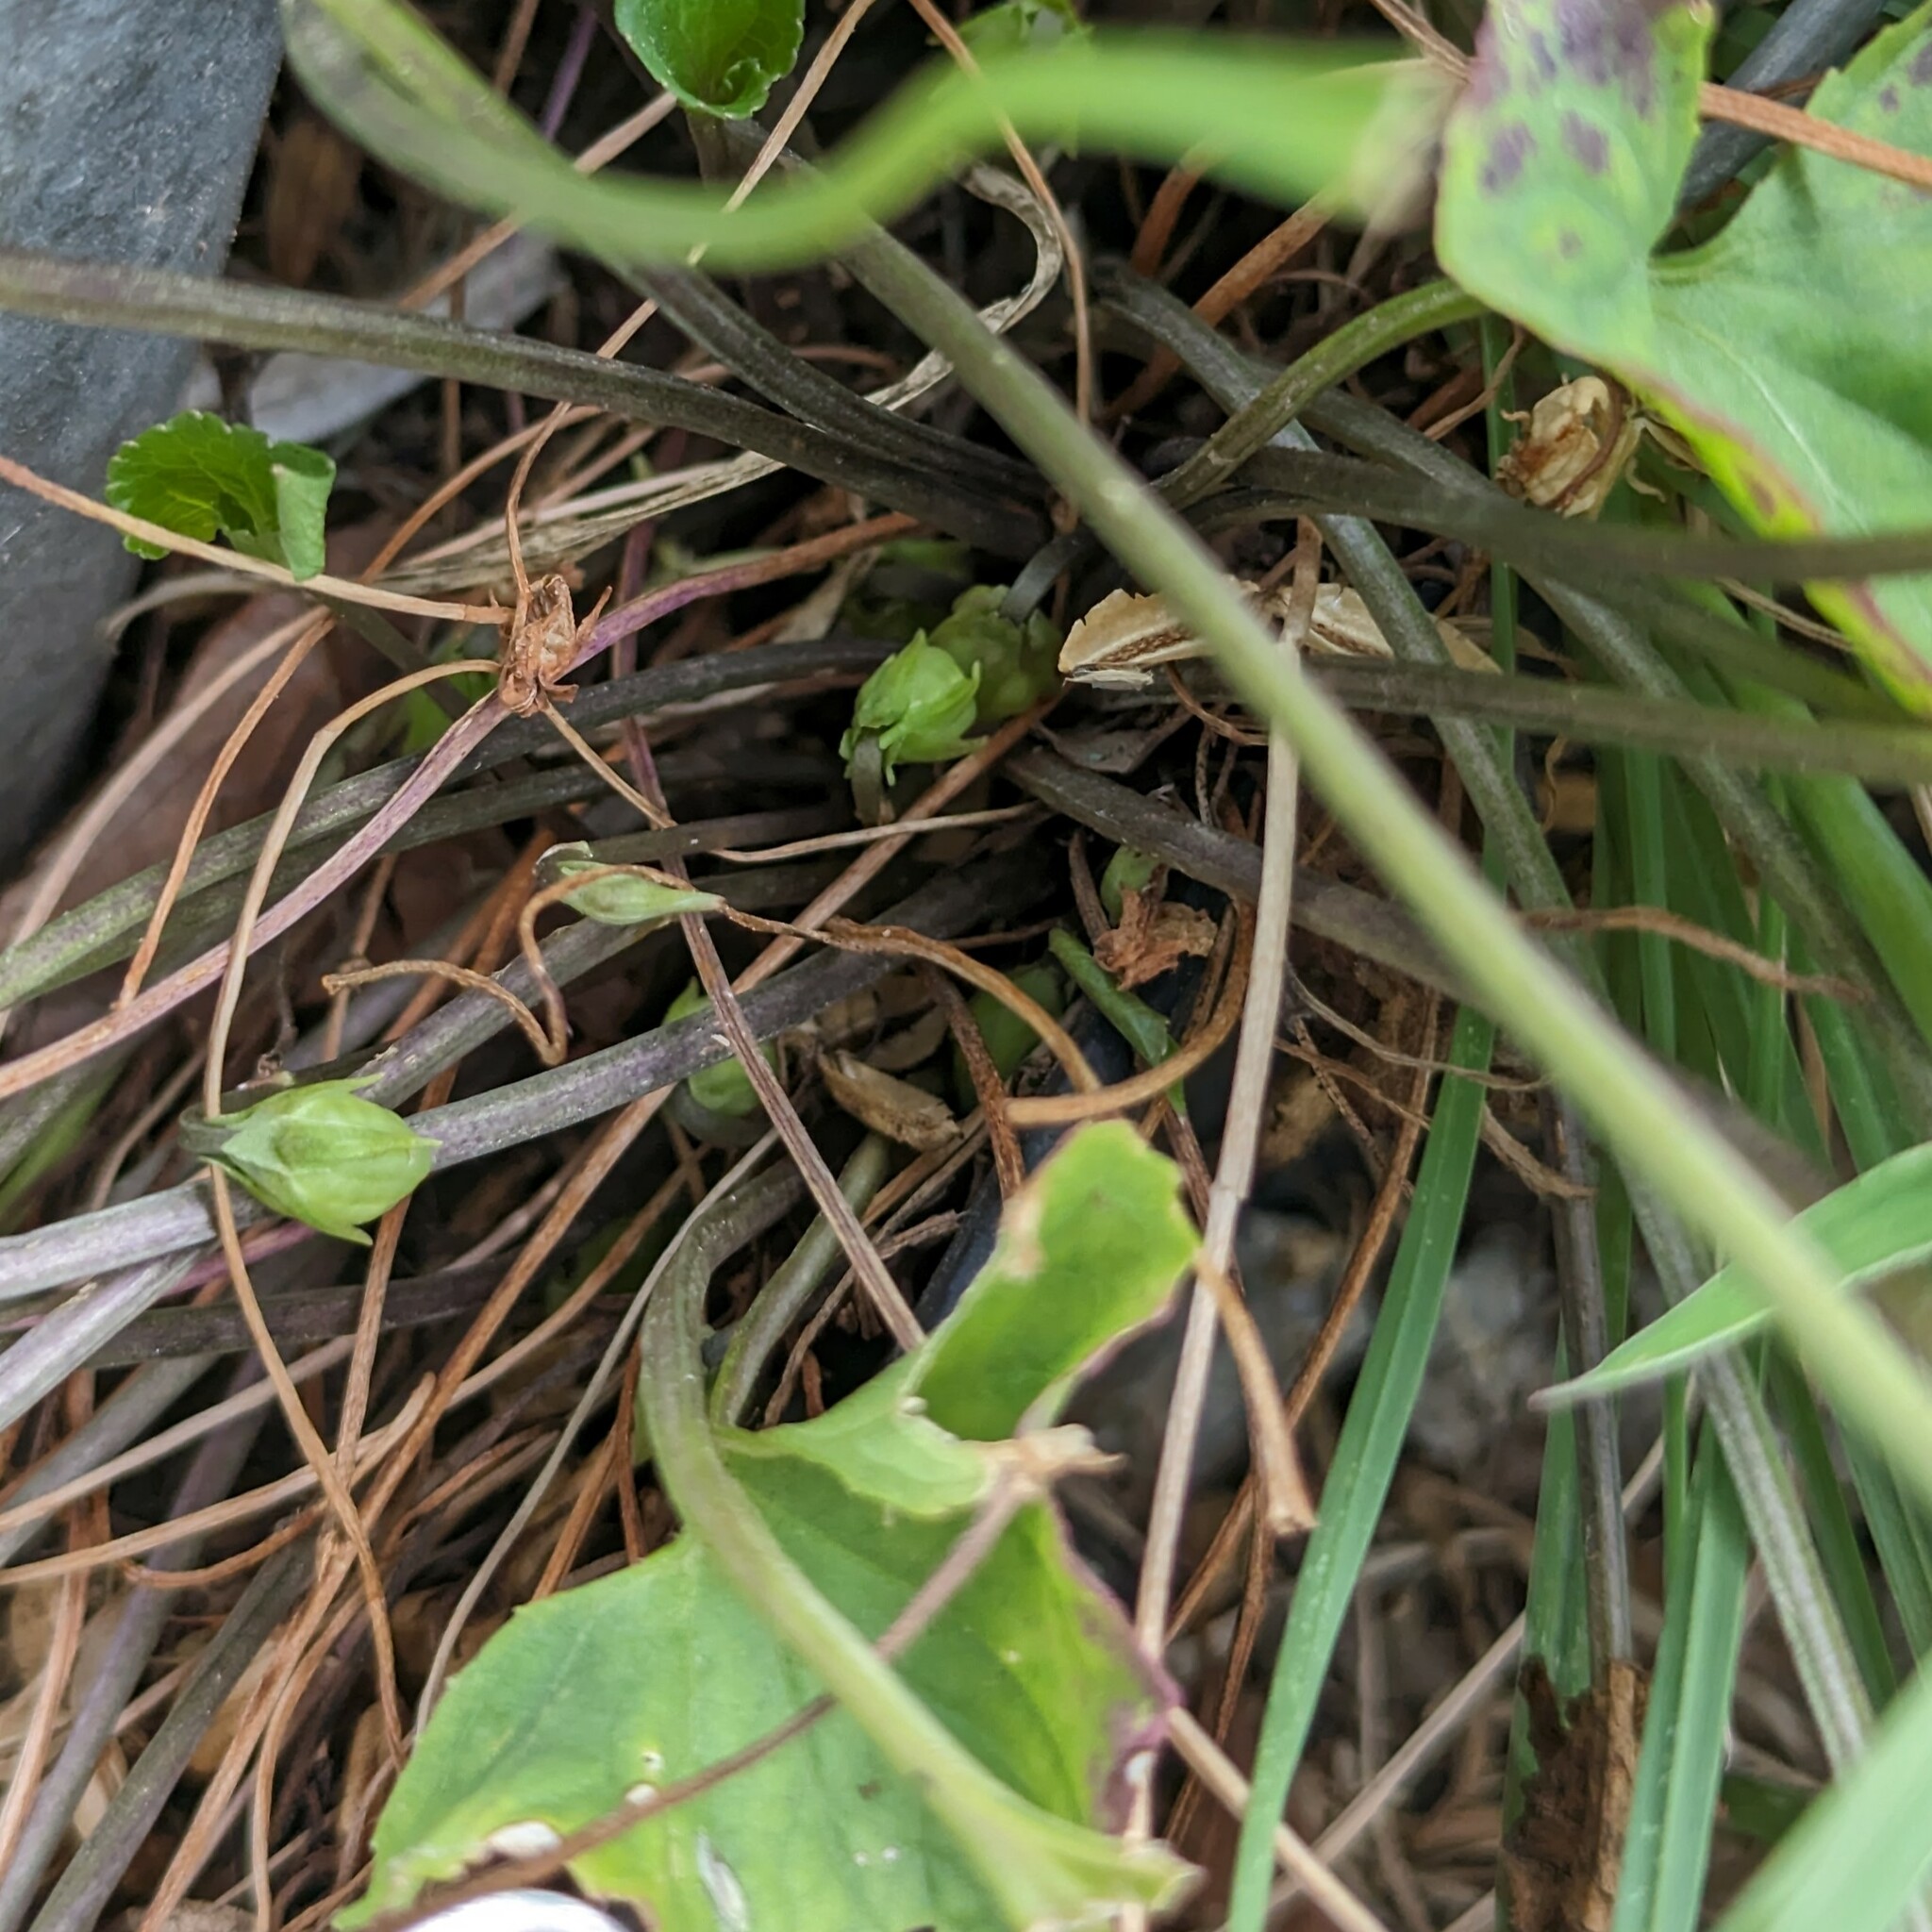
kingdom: Plantae
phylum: Tracheophyta
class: Magnoliopsida
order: Malpighiales
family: Violaceae
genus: Viola
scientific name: Viola sororia
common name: Dooryard violet
